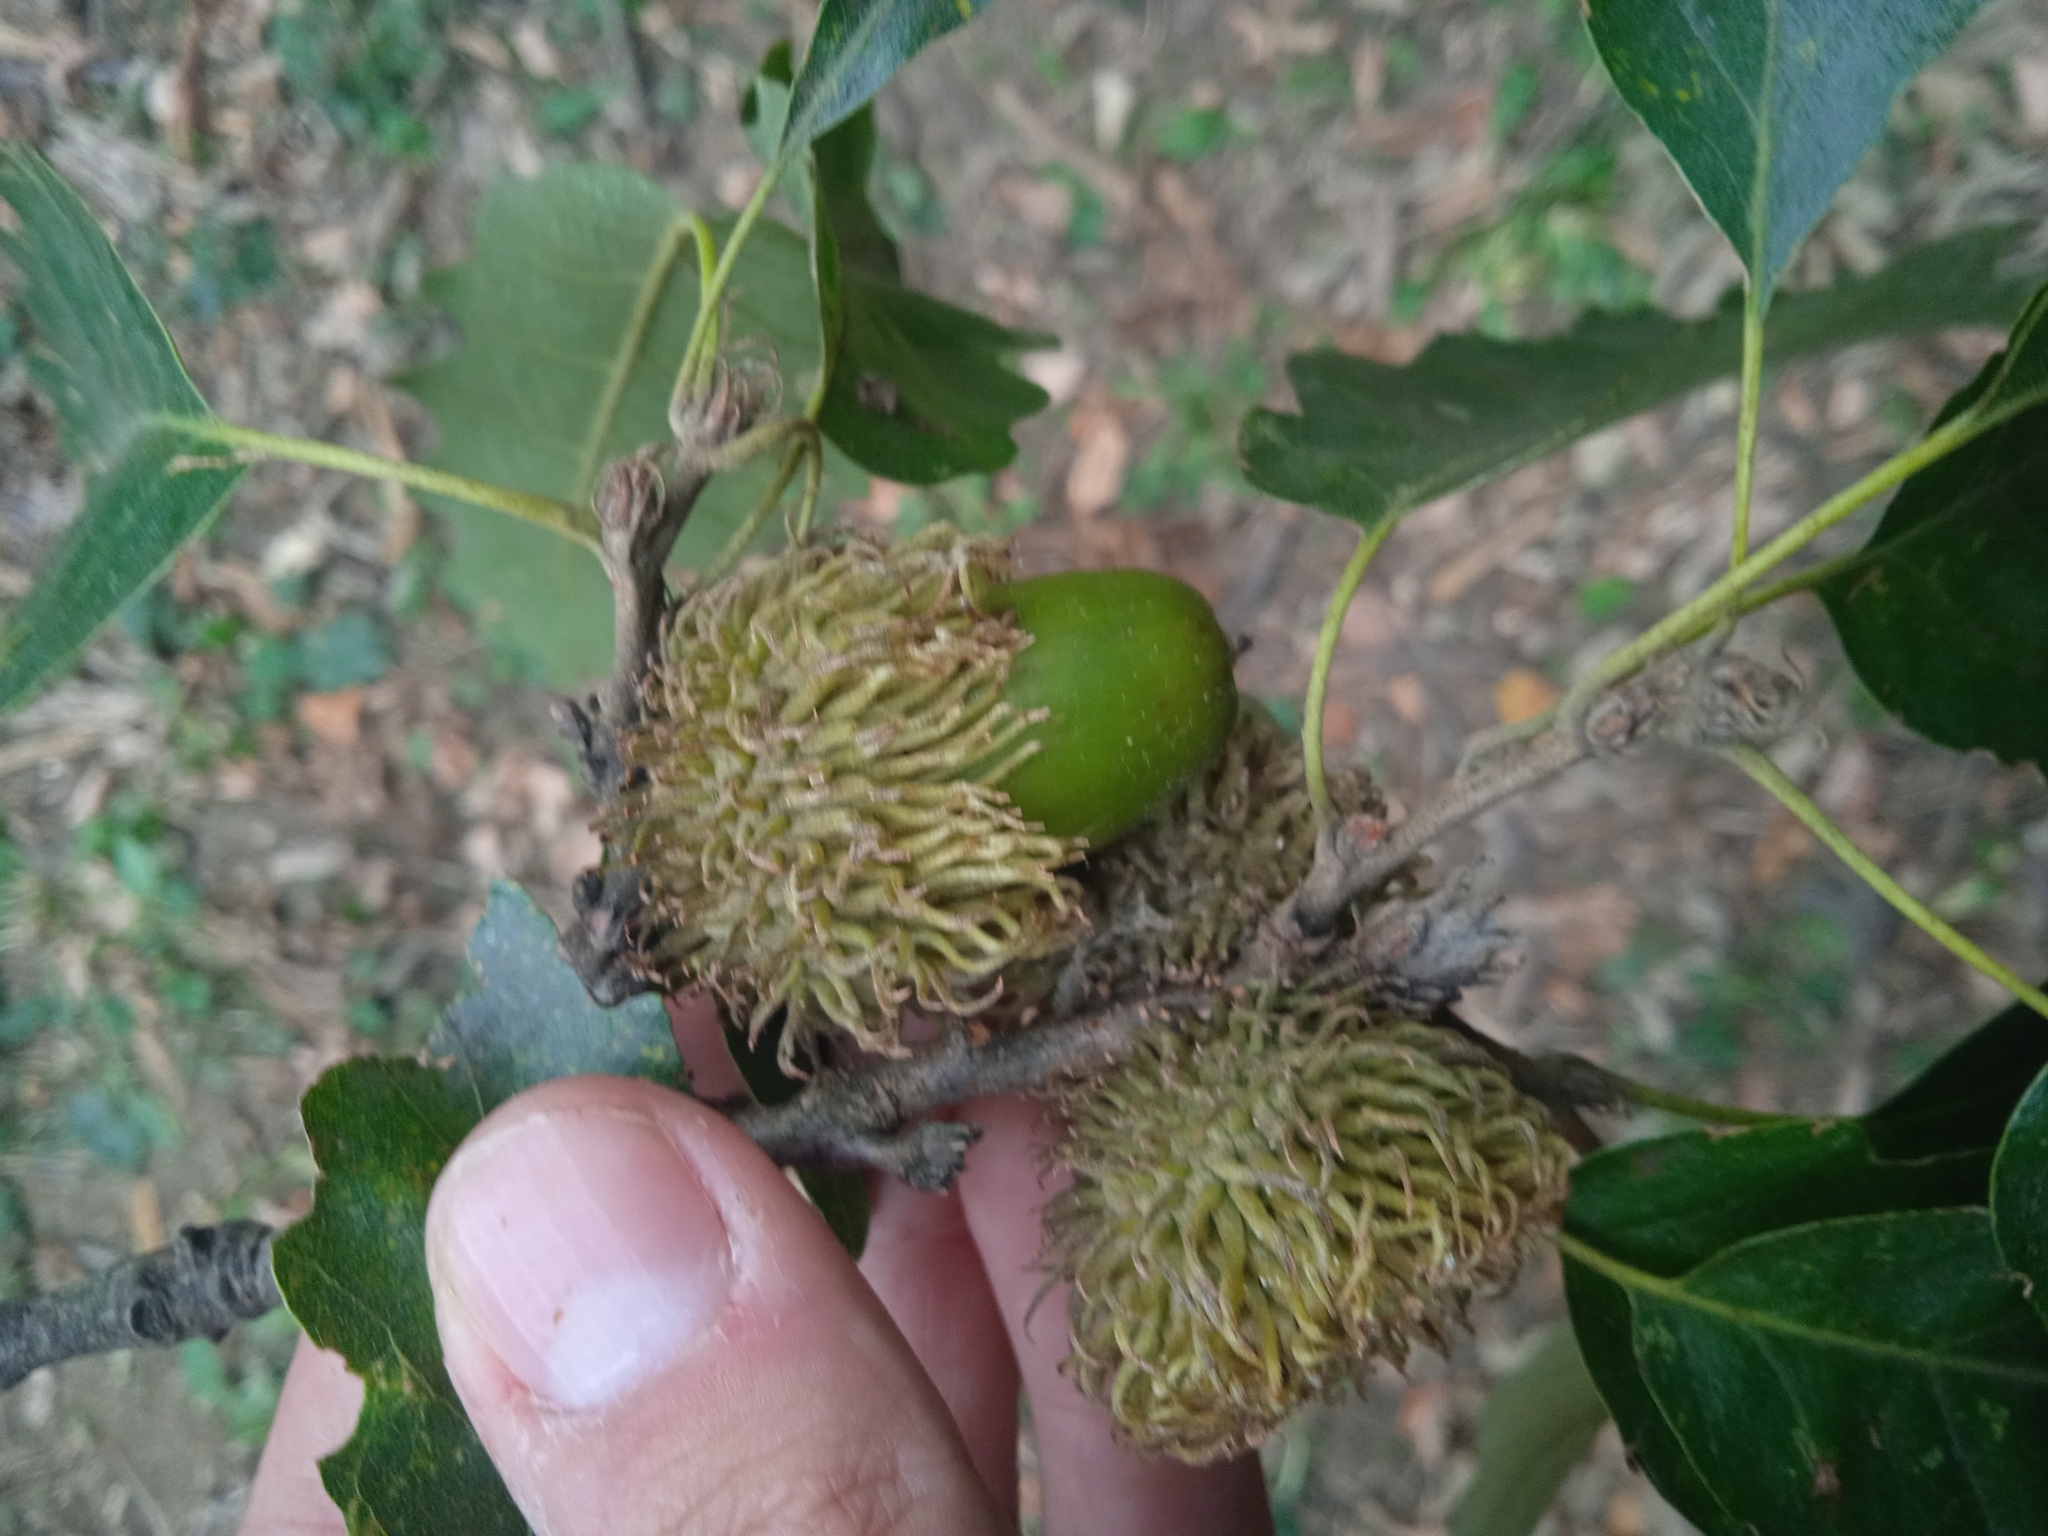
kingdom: Plantae
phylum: Tracheophyta
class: Magnoliopsida
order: Fagales
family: Fagaceae
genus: Quercus
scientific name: Quercus cerris
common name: Turkey oak
